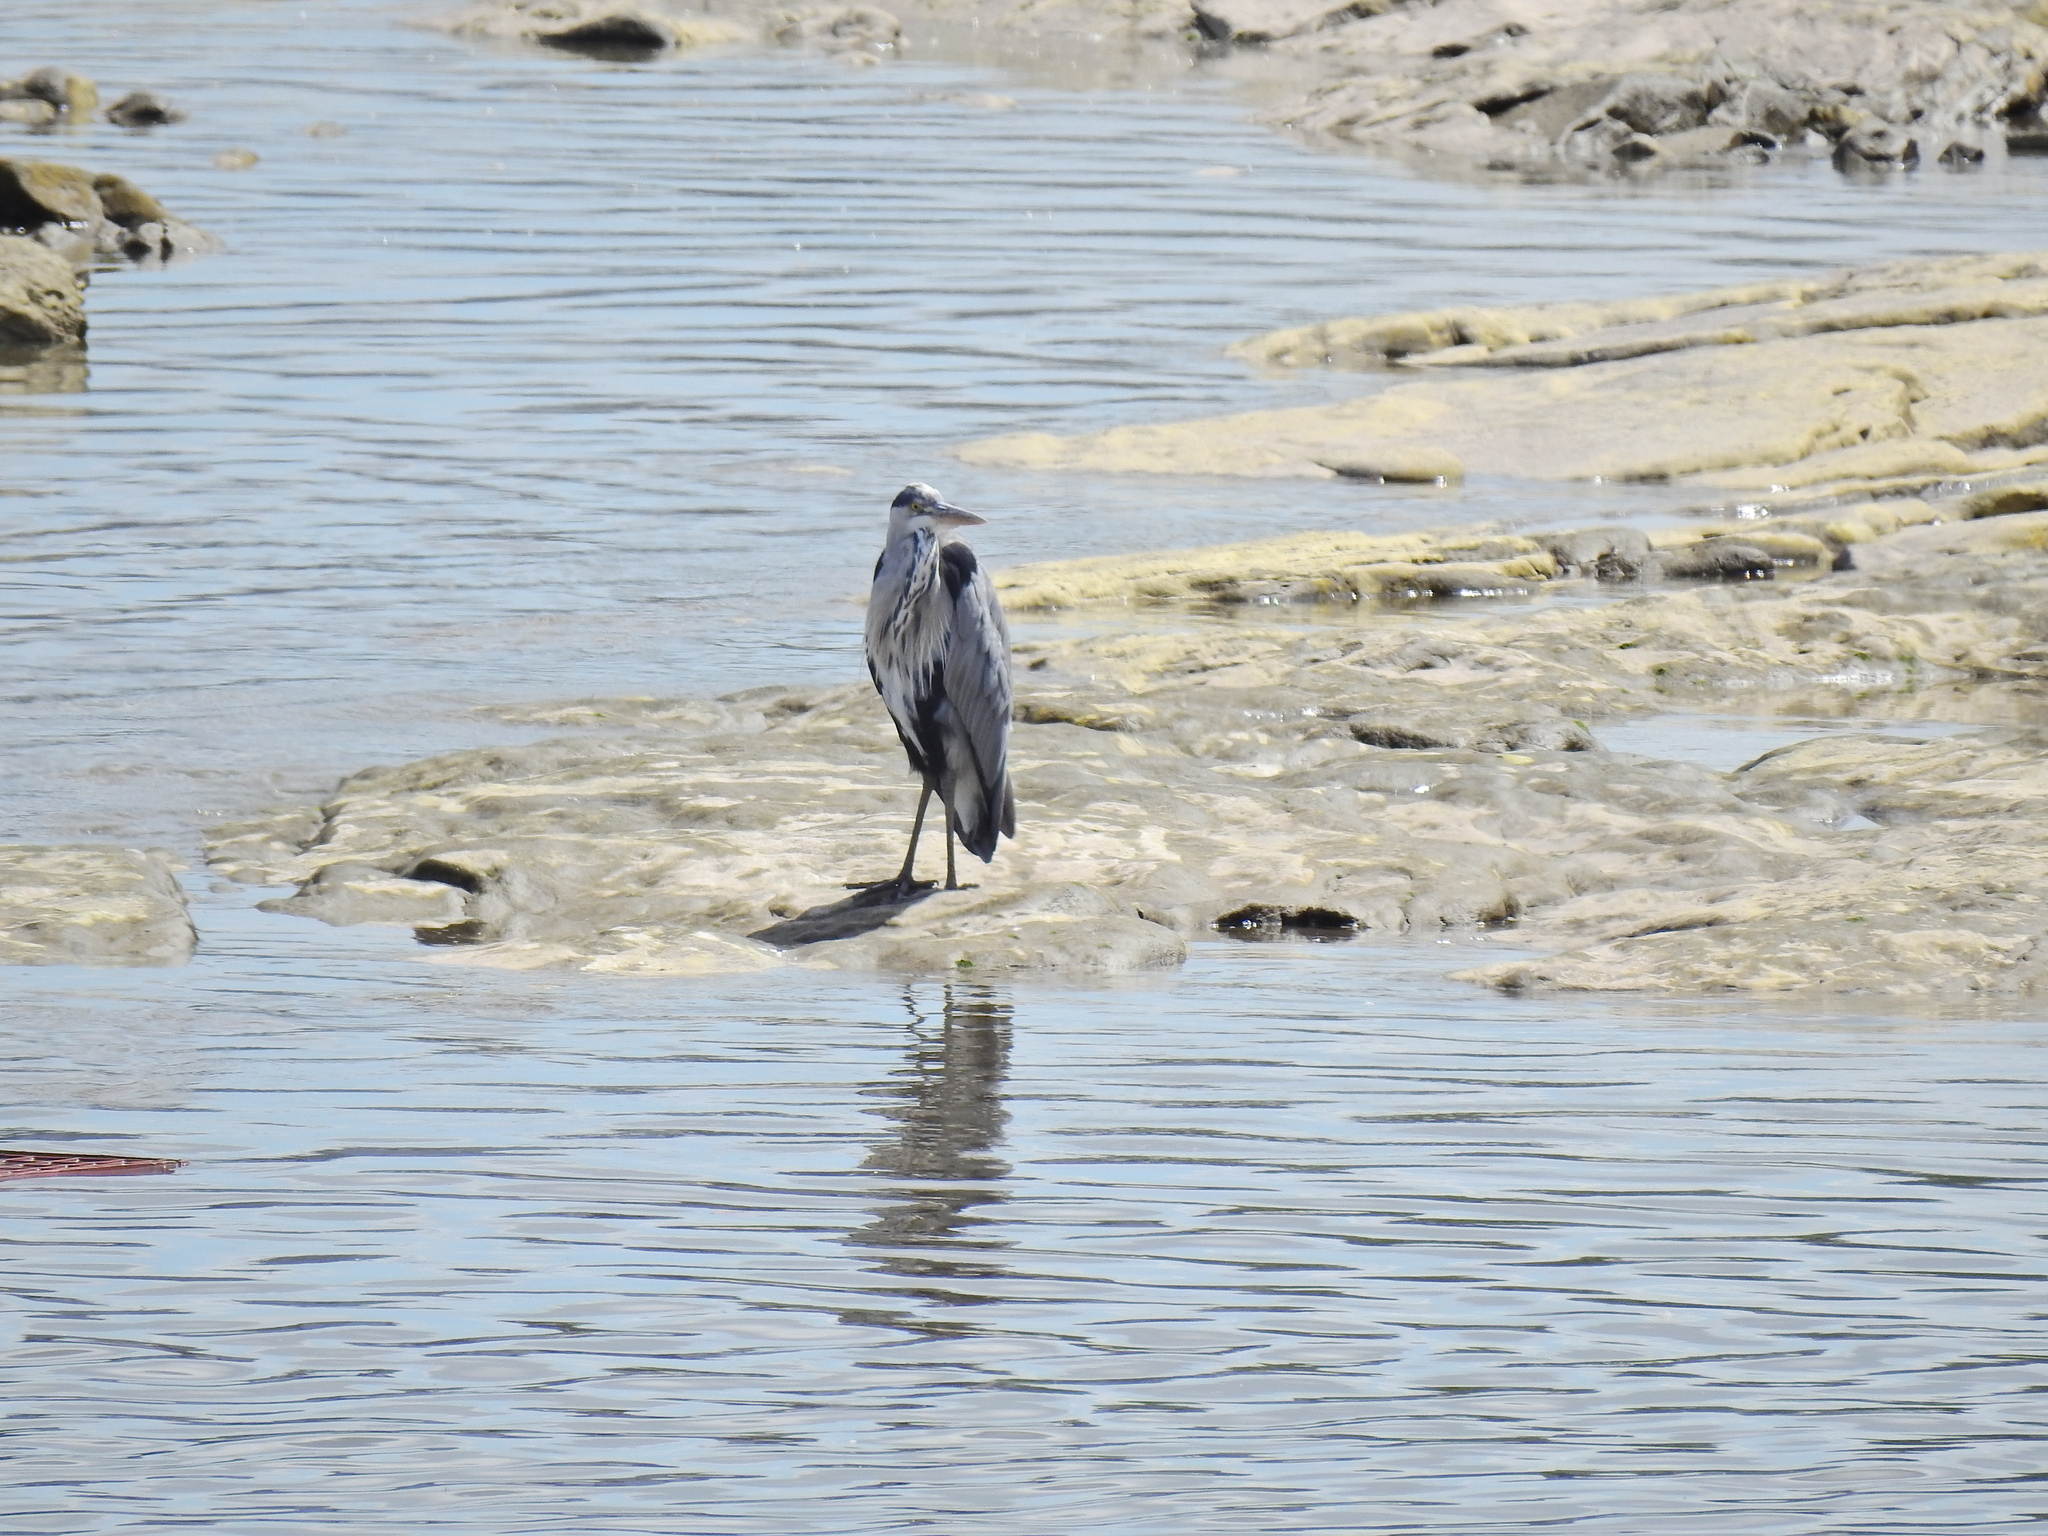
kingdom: Animalia
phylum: Chordata
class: Aves
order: Pelecaniformes
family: Ardeidae
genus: Ardea
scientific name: Ardea cinerea
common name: Grey heron
